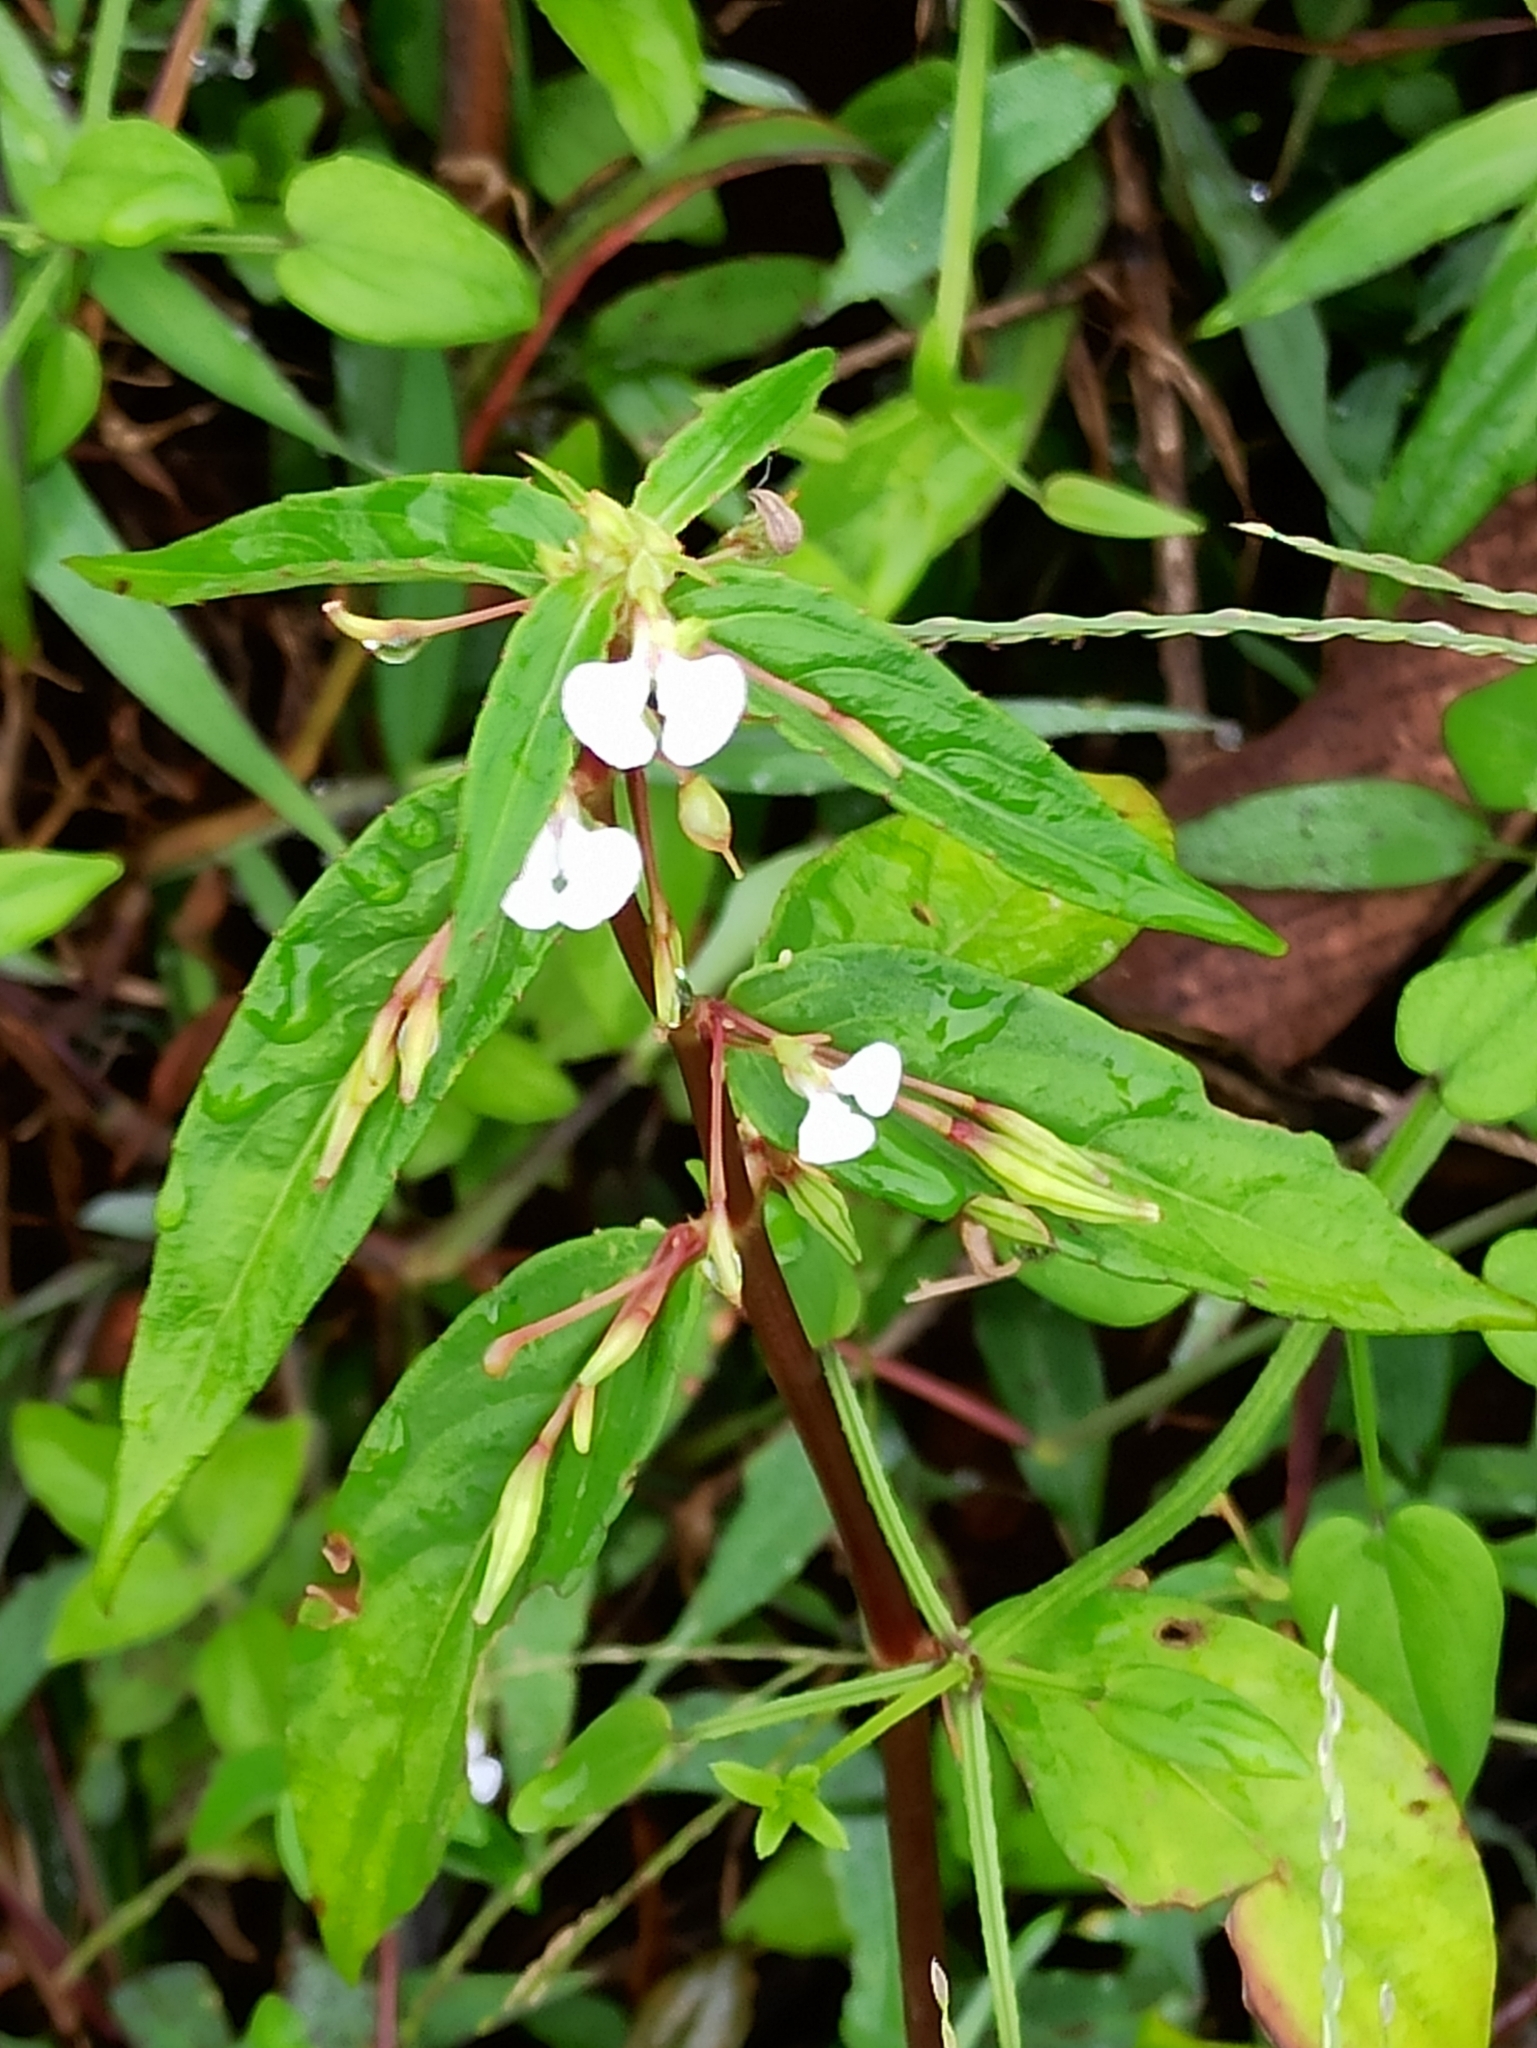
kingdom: Plantae
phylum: Tracheophyta
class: Magnoliopsida
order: Ericales
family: Balsaminaceae
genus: Impatiens
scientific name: Impatiens minor
